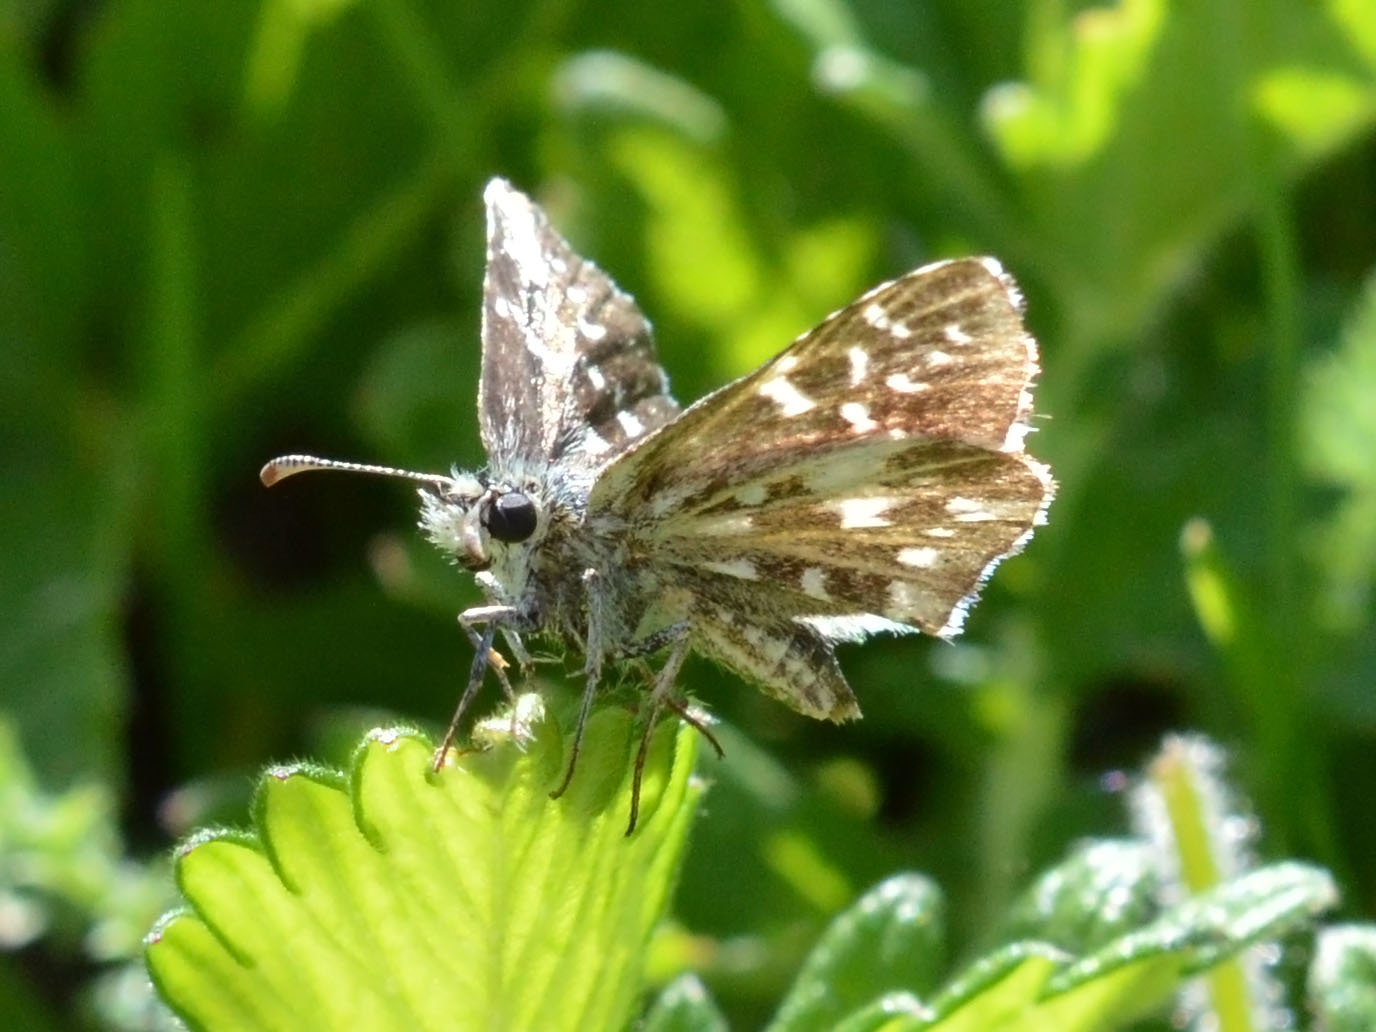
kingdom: Animalia
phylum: Arthropoda
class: Insecta
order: Lepidoptera
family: Hesperiidae
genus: Pyrgus
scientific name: Pyrgus malvae
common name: Grizzled skipper
